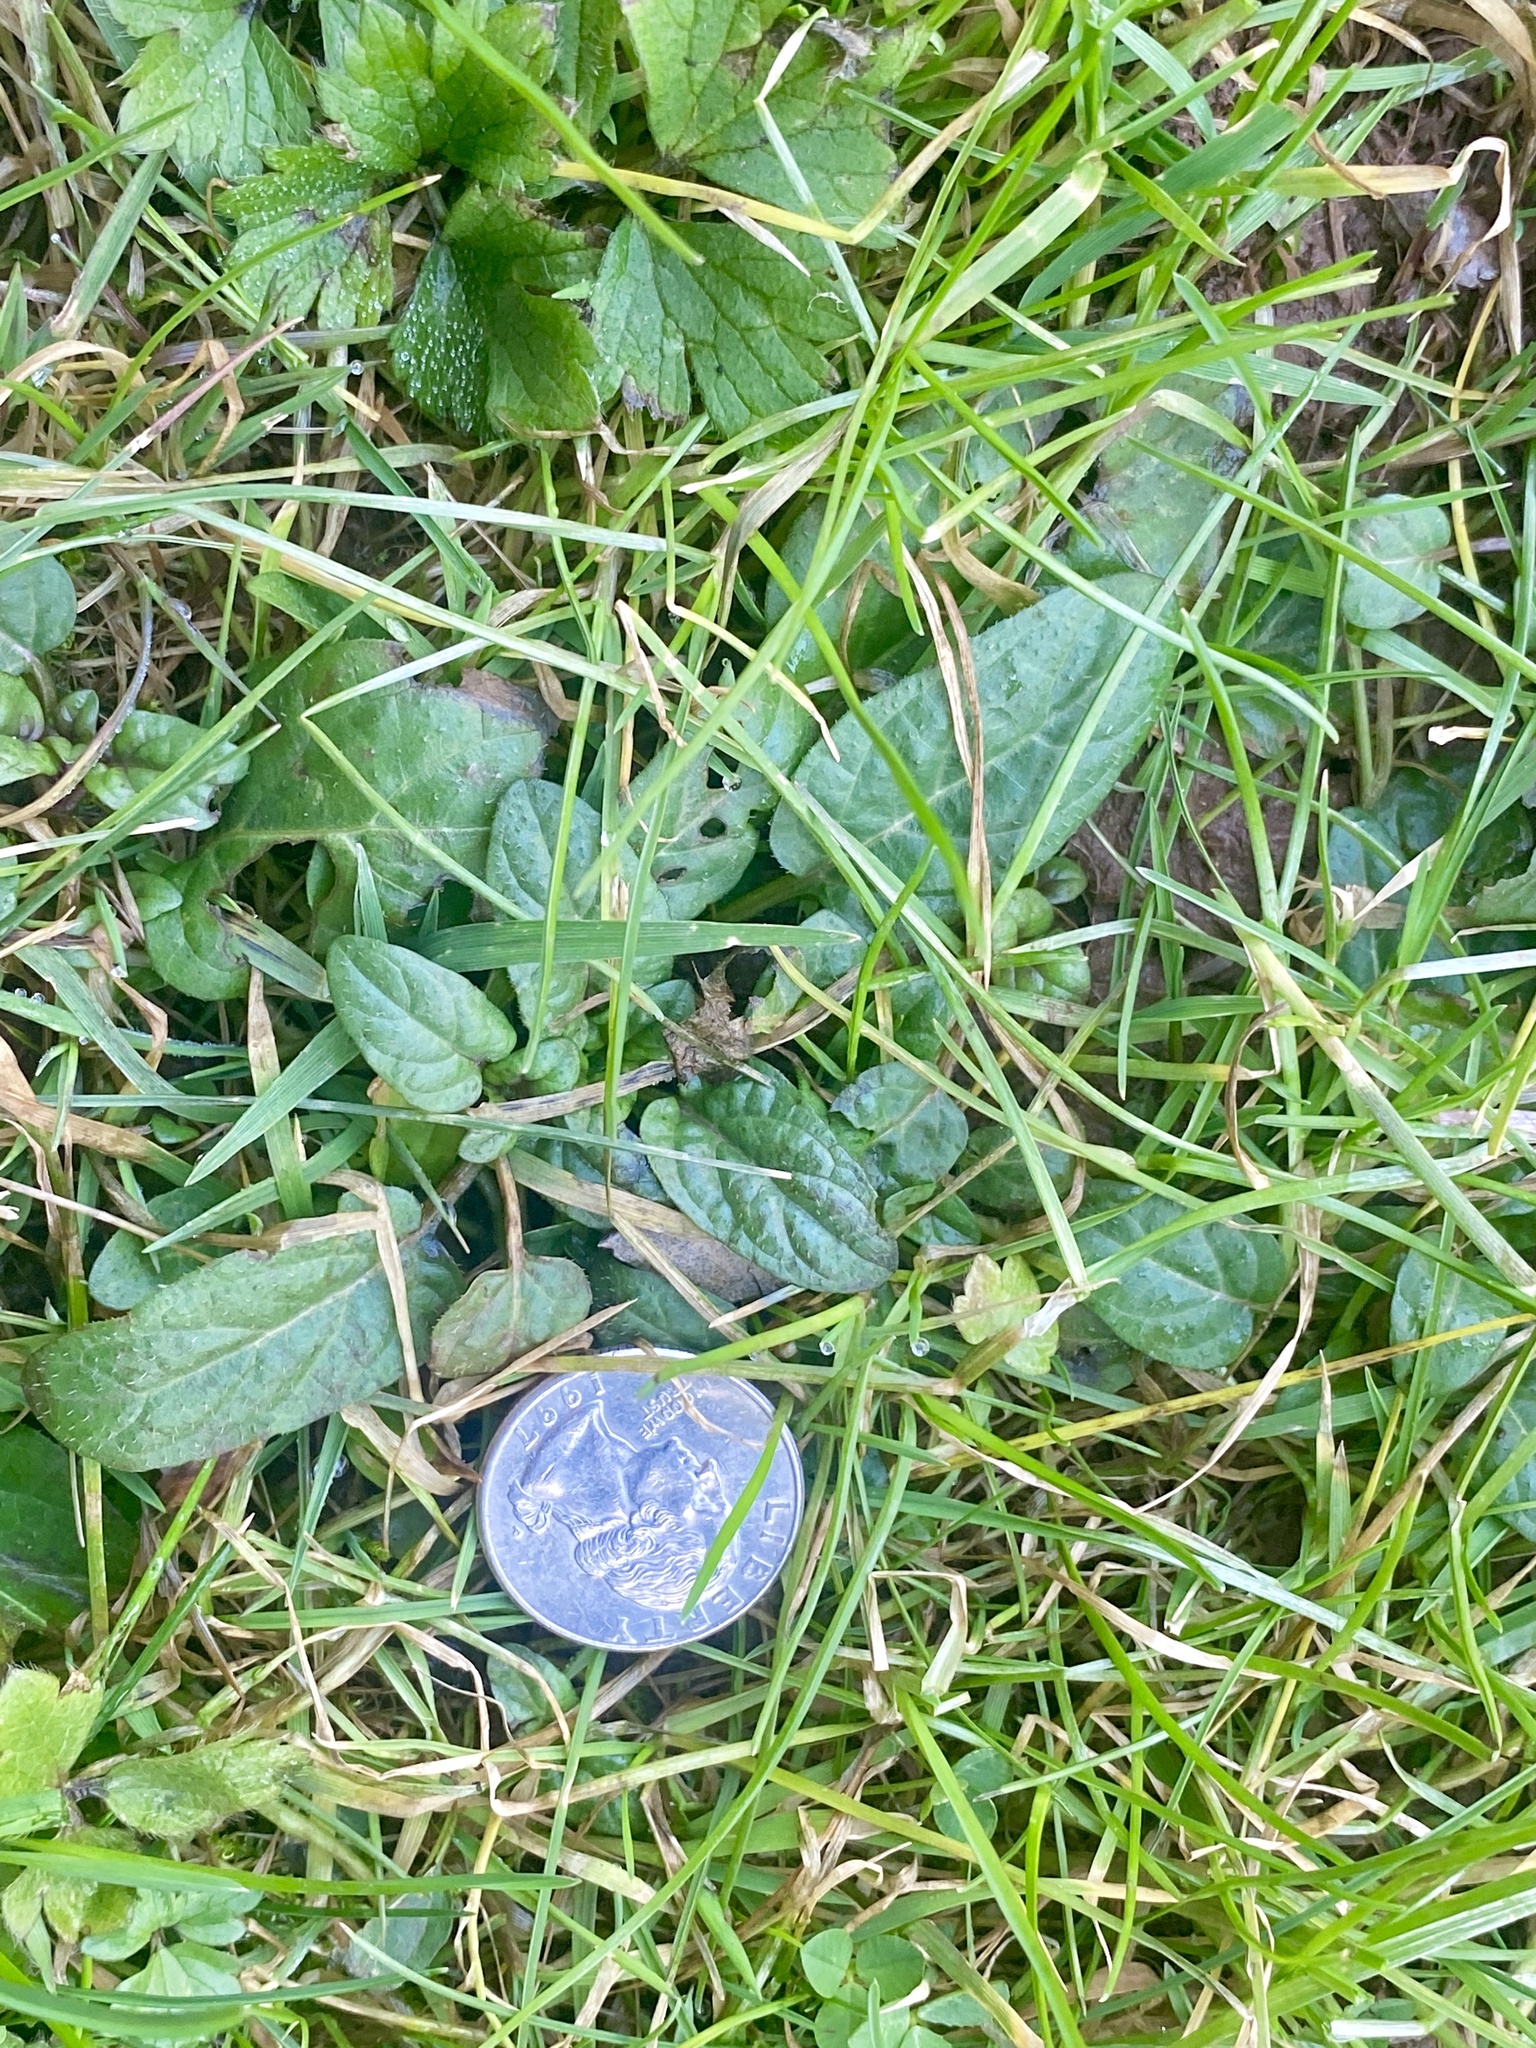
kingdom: Plantae
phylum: Tracheophyta
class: Magnoliopsida
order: Lamiales
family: Lamiaceae
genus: Prunella
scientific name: Prunella vulgaris
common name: Heal-all
